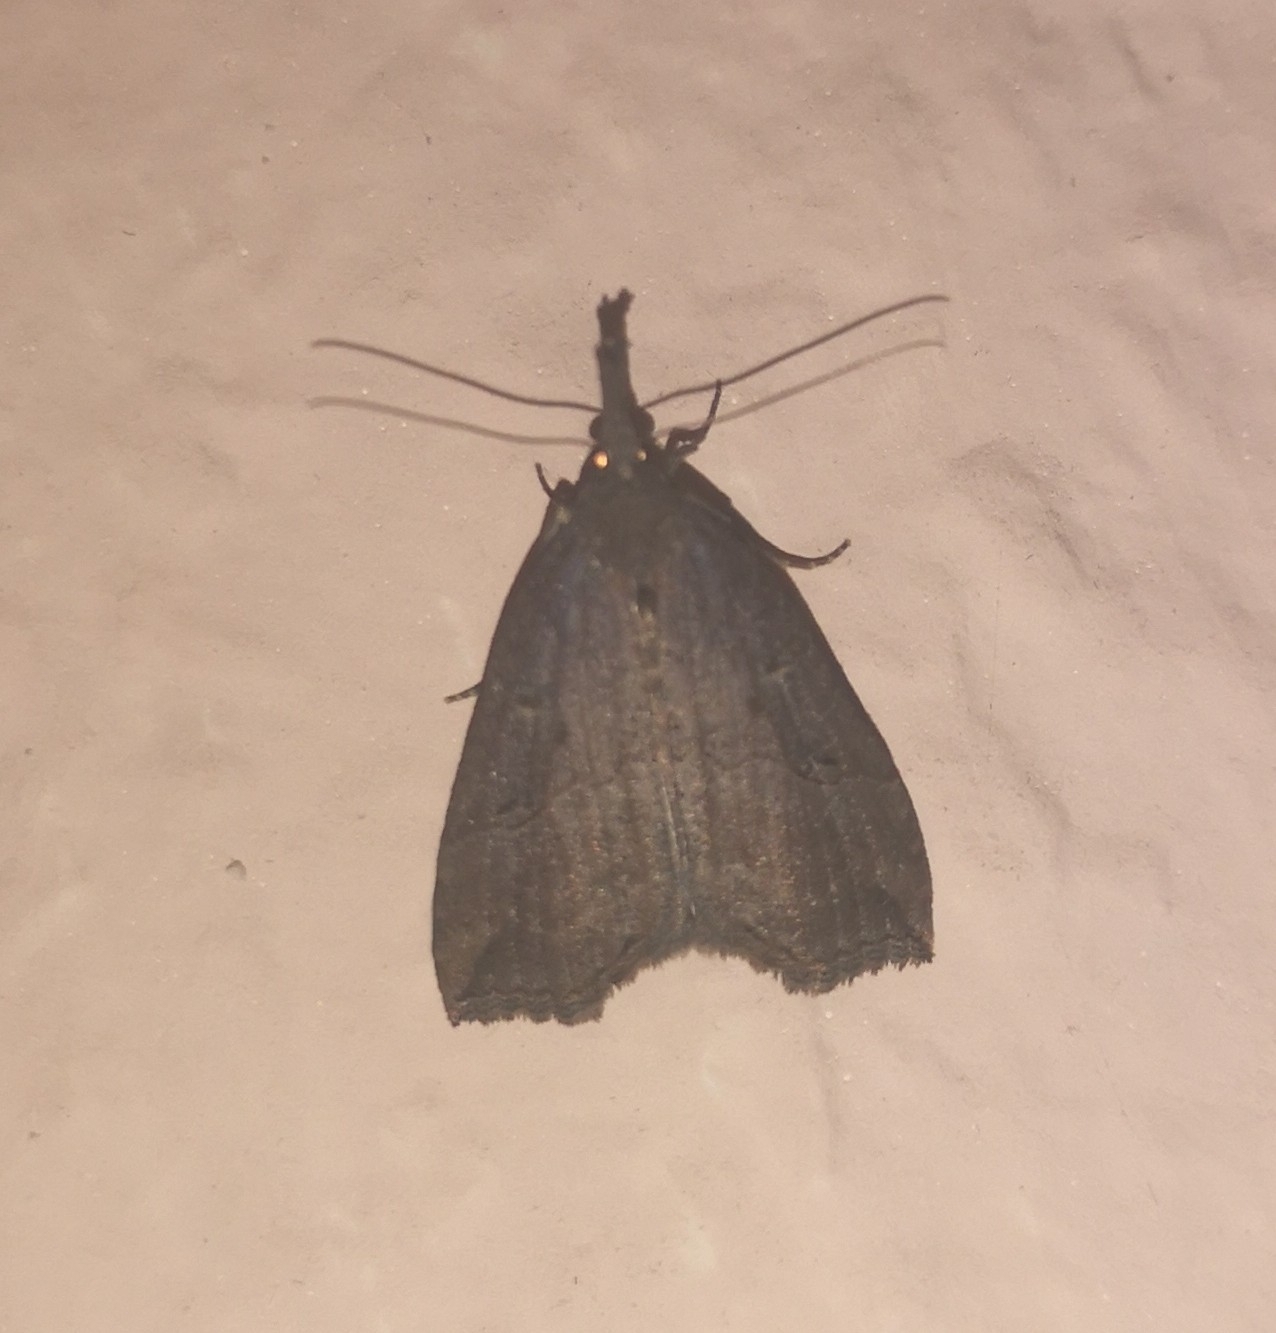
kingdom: Animalia
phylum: Arthropoda
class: Insecta
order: Lepidoptera
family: Erebidae
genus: Hypena
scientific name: Hypena rostralis
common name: Buttoned snout
